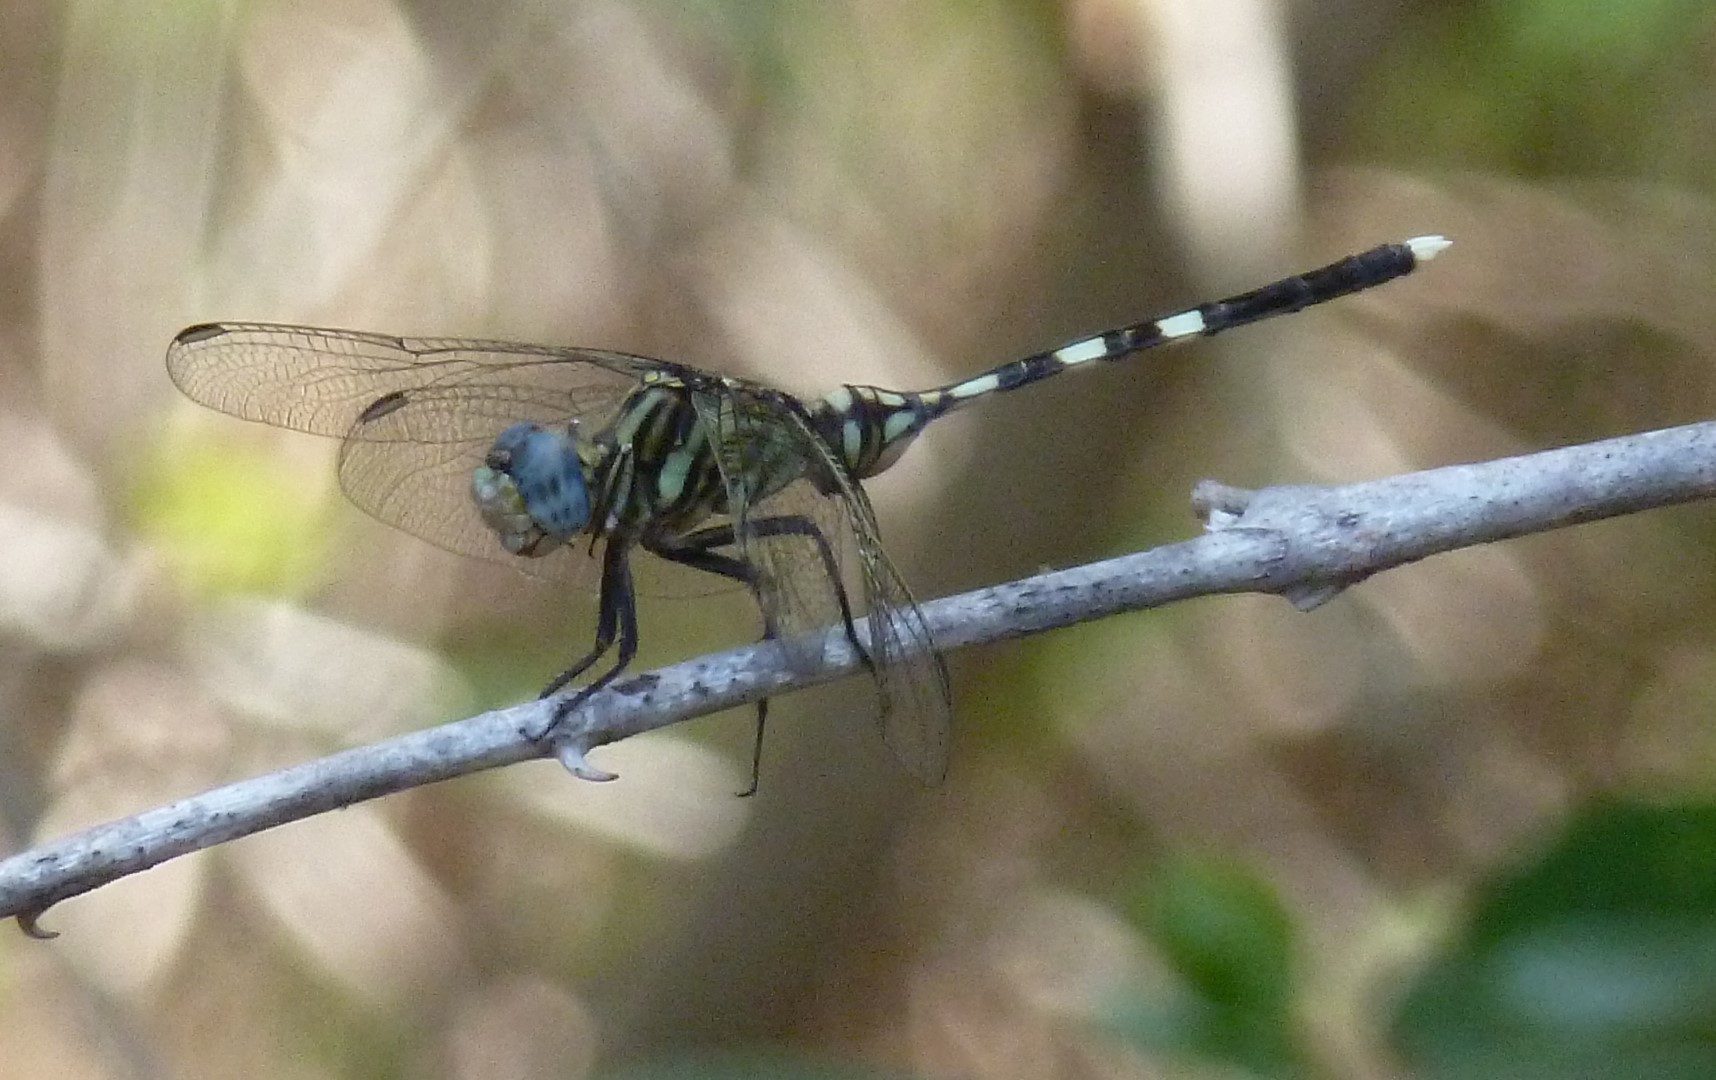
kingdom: Animalia
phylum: Arthropoda
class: Insecta
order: Odonata
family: Libellulidae
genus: Orthetrum
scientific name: Orthetrum stemmale
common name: Bold skimmer
